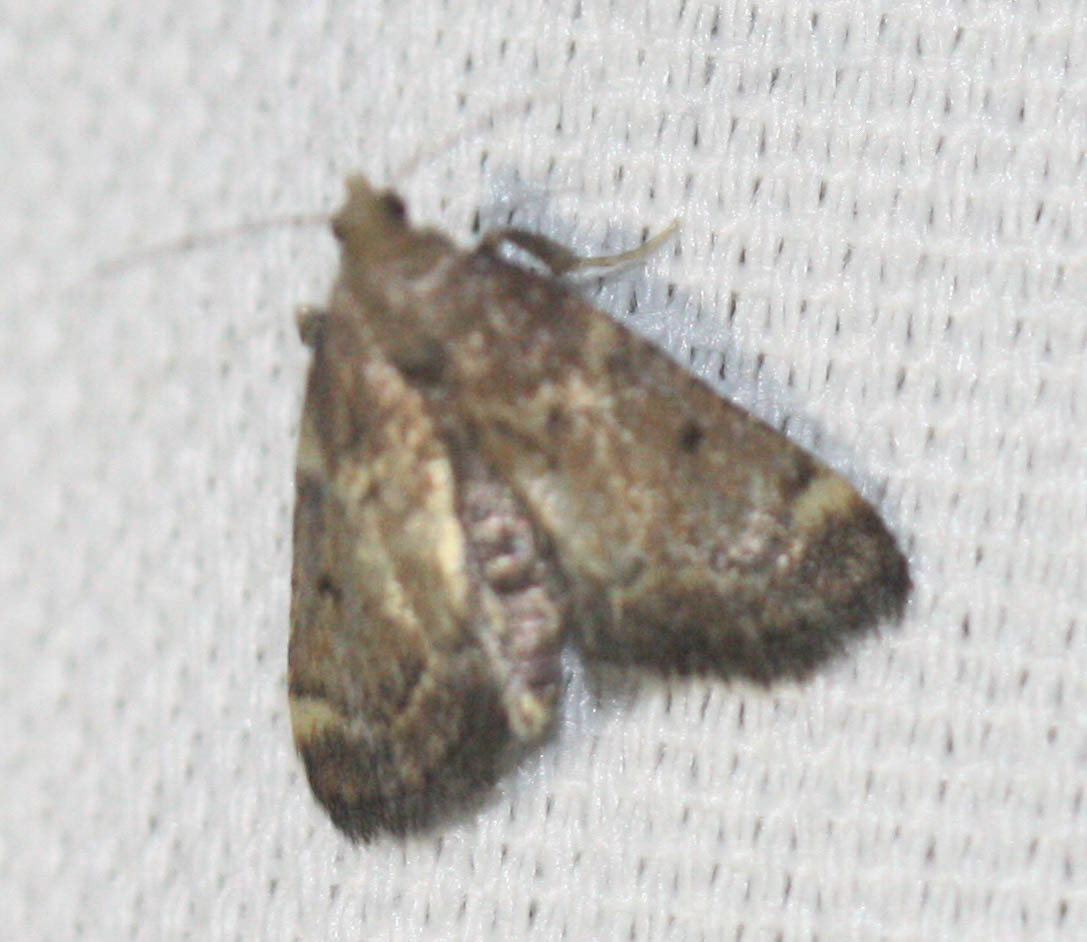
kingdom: Animalia
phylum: Arthropoda
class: Insecta
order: Lepidoptera
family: Pyralidae
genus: Hypsopygia
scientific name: Hypsopygia phoezalis
